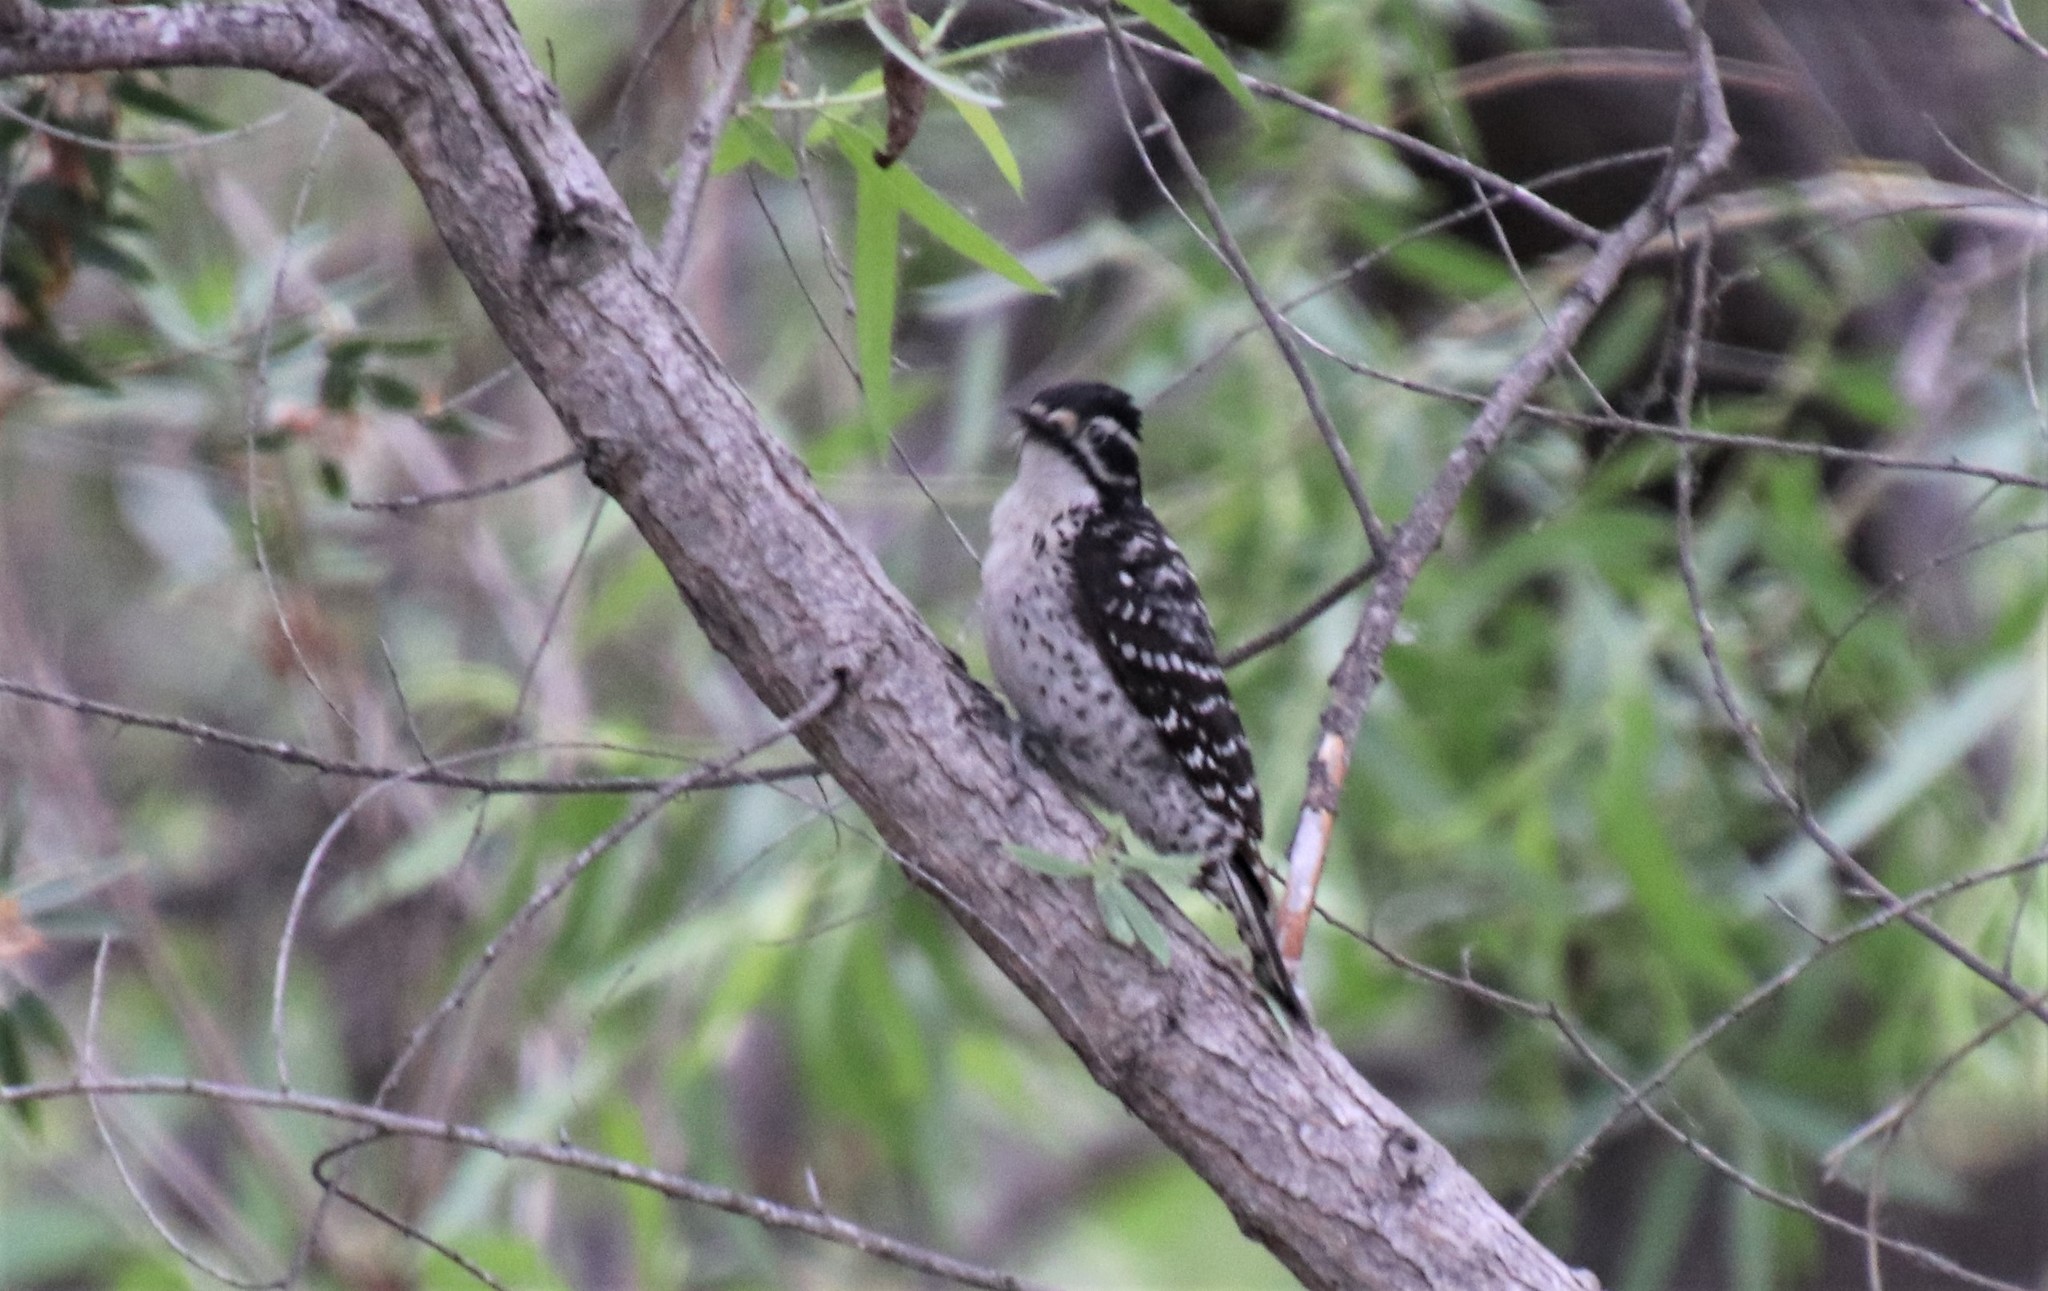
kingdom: Animalia
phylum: Chordata
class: Aves
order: Piciformes
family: Picidae
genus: Dryobates
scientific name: Dryobates nuttallii
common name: Nuttall's woodpecker
